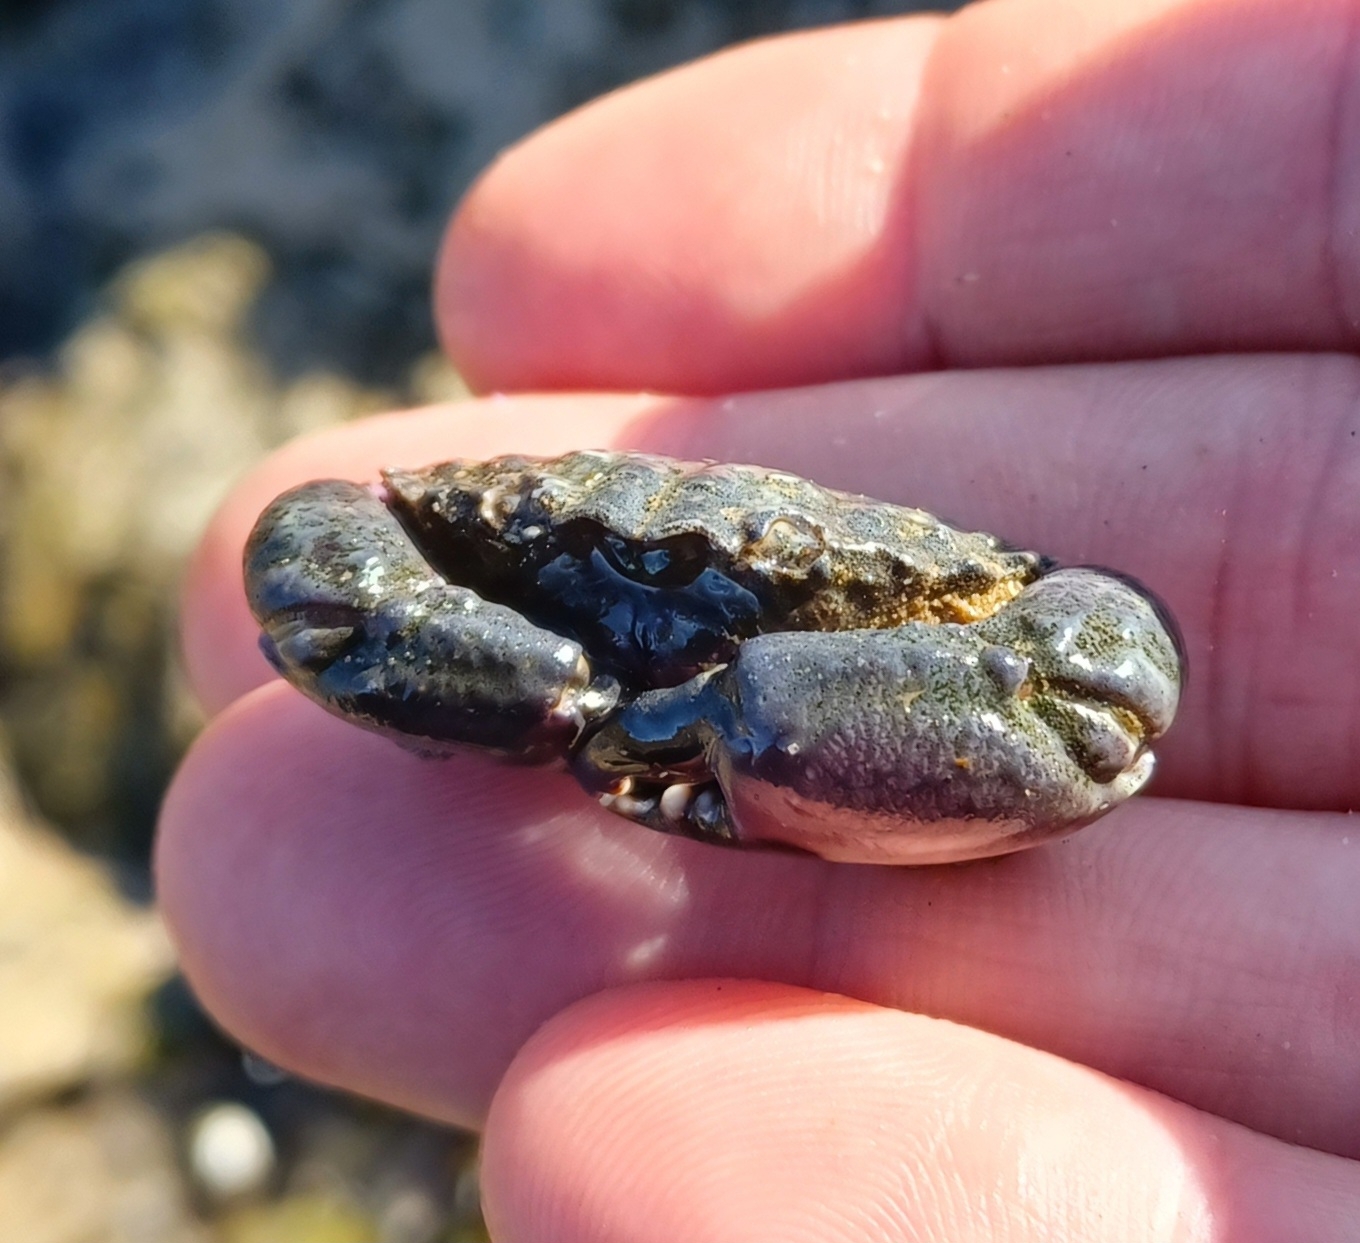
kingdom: Animalia
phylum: Arthropoda
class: Malacostraca
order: Decapoda
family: Oziidae
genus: Ozius
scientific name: Ozius truncatus
